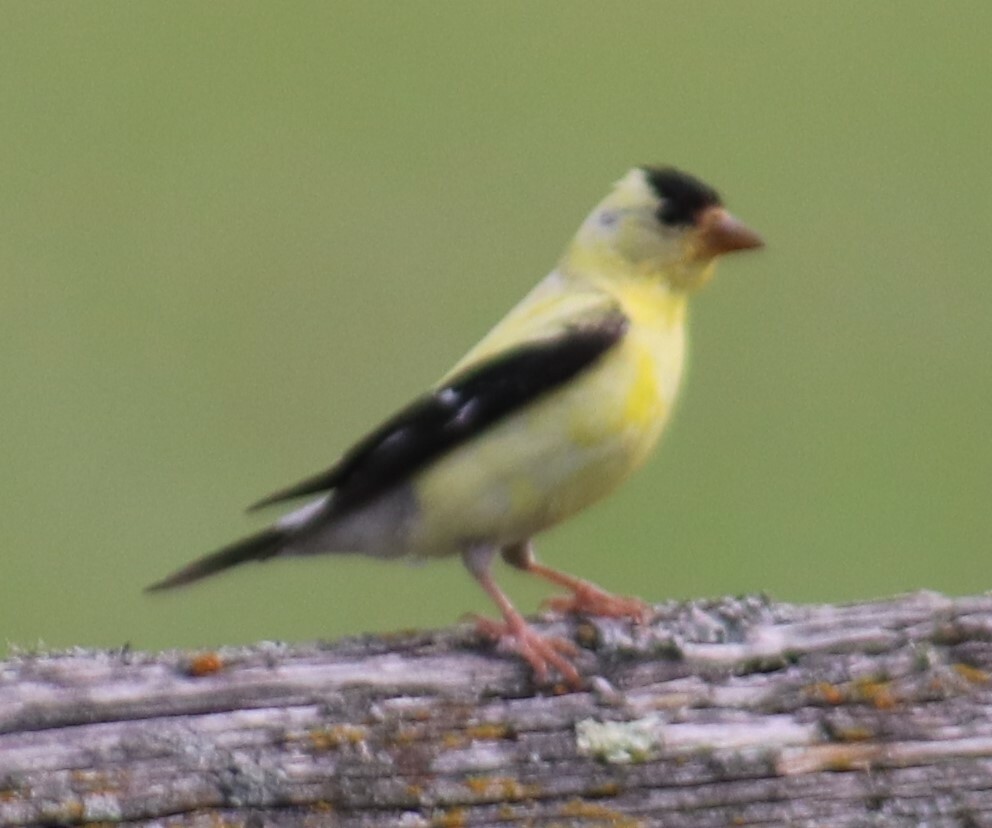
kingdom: Animalia
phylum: Chordata
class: Aves
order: Passeriformes
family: Fringillidae
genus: Spinus
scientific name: Spinus tristis
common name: American goldfinch
